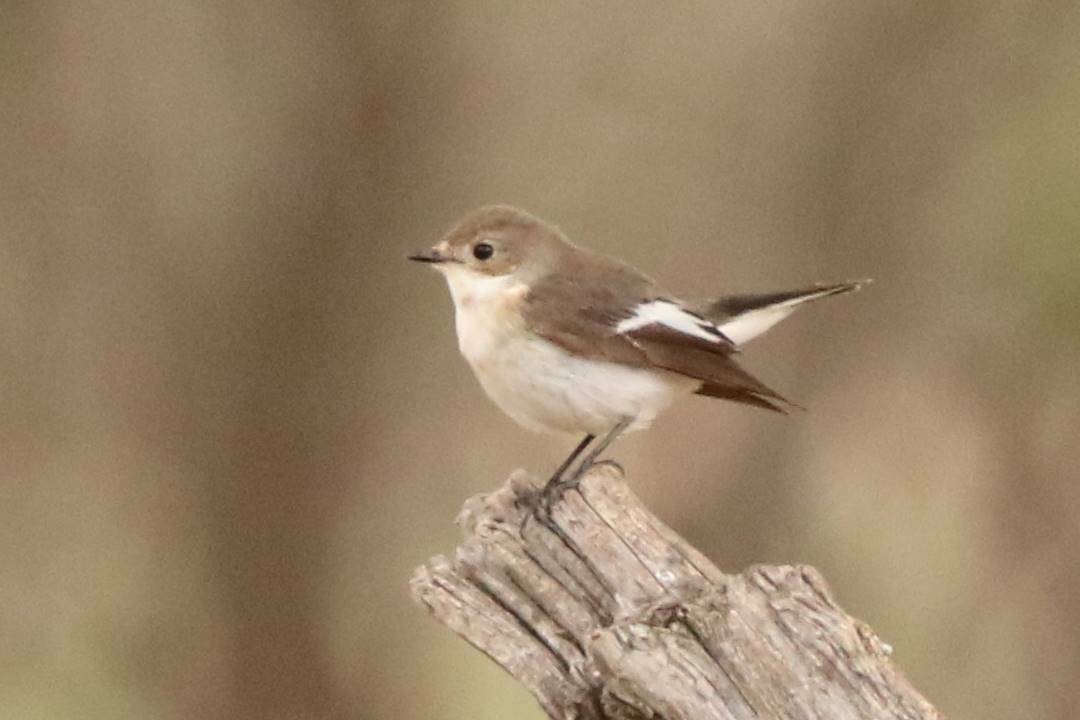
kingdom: Animalia
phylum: Chordata
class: Aves
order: Passeriformes
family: Muscicapidae
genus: Ficedula
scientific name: Ficedula hypoleuca
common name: European pied flycatcher
